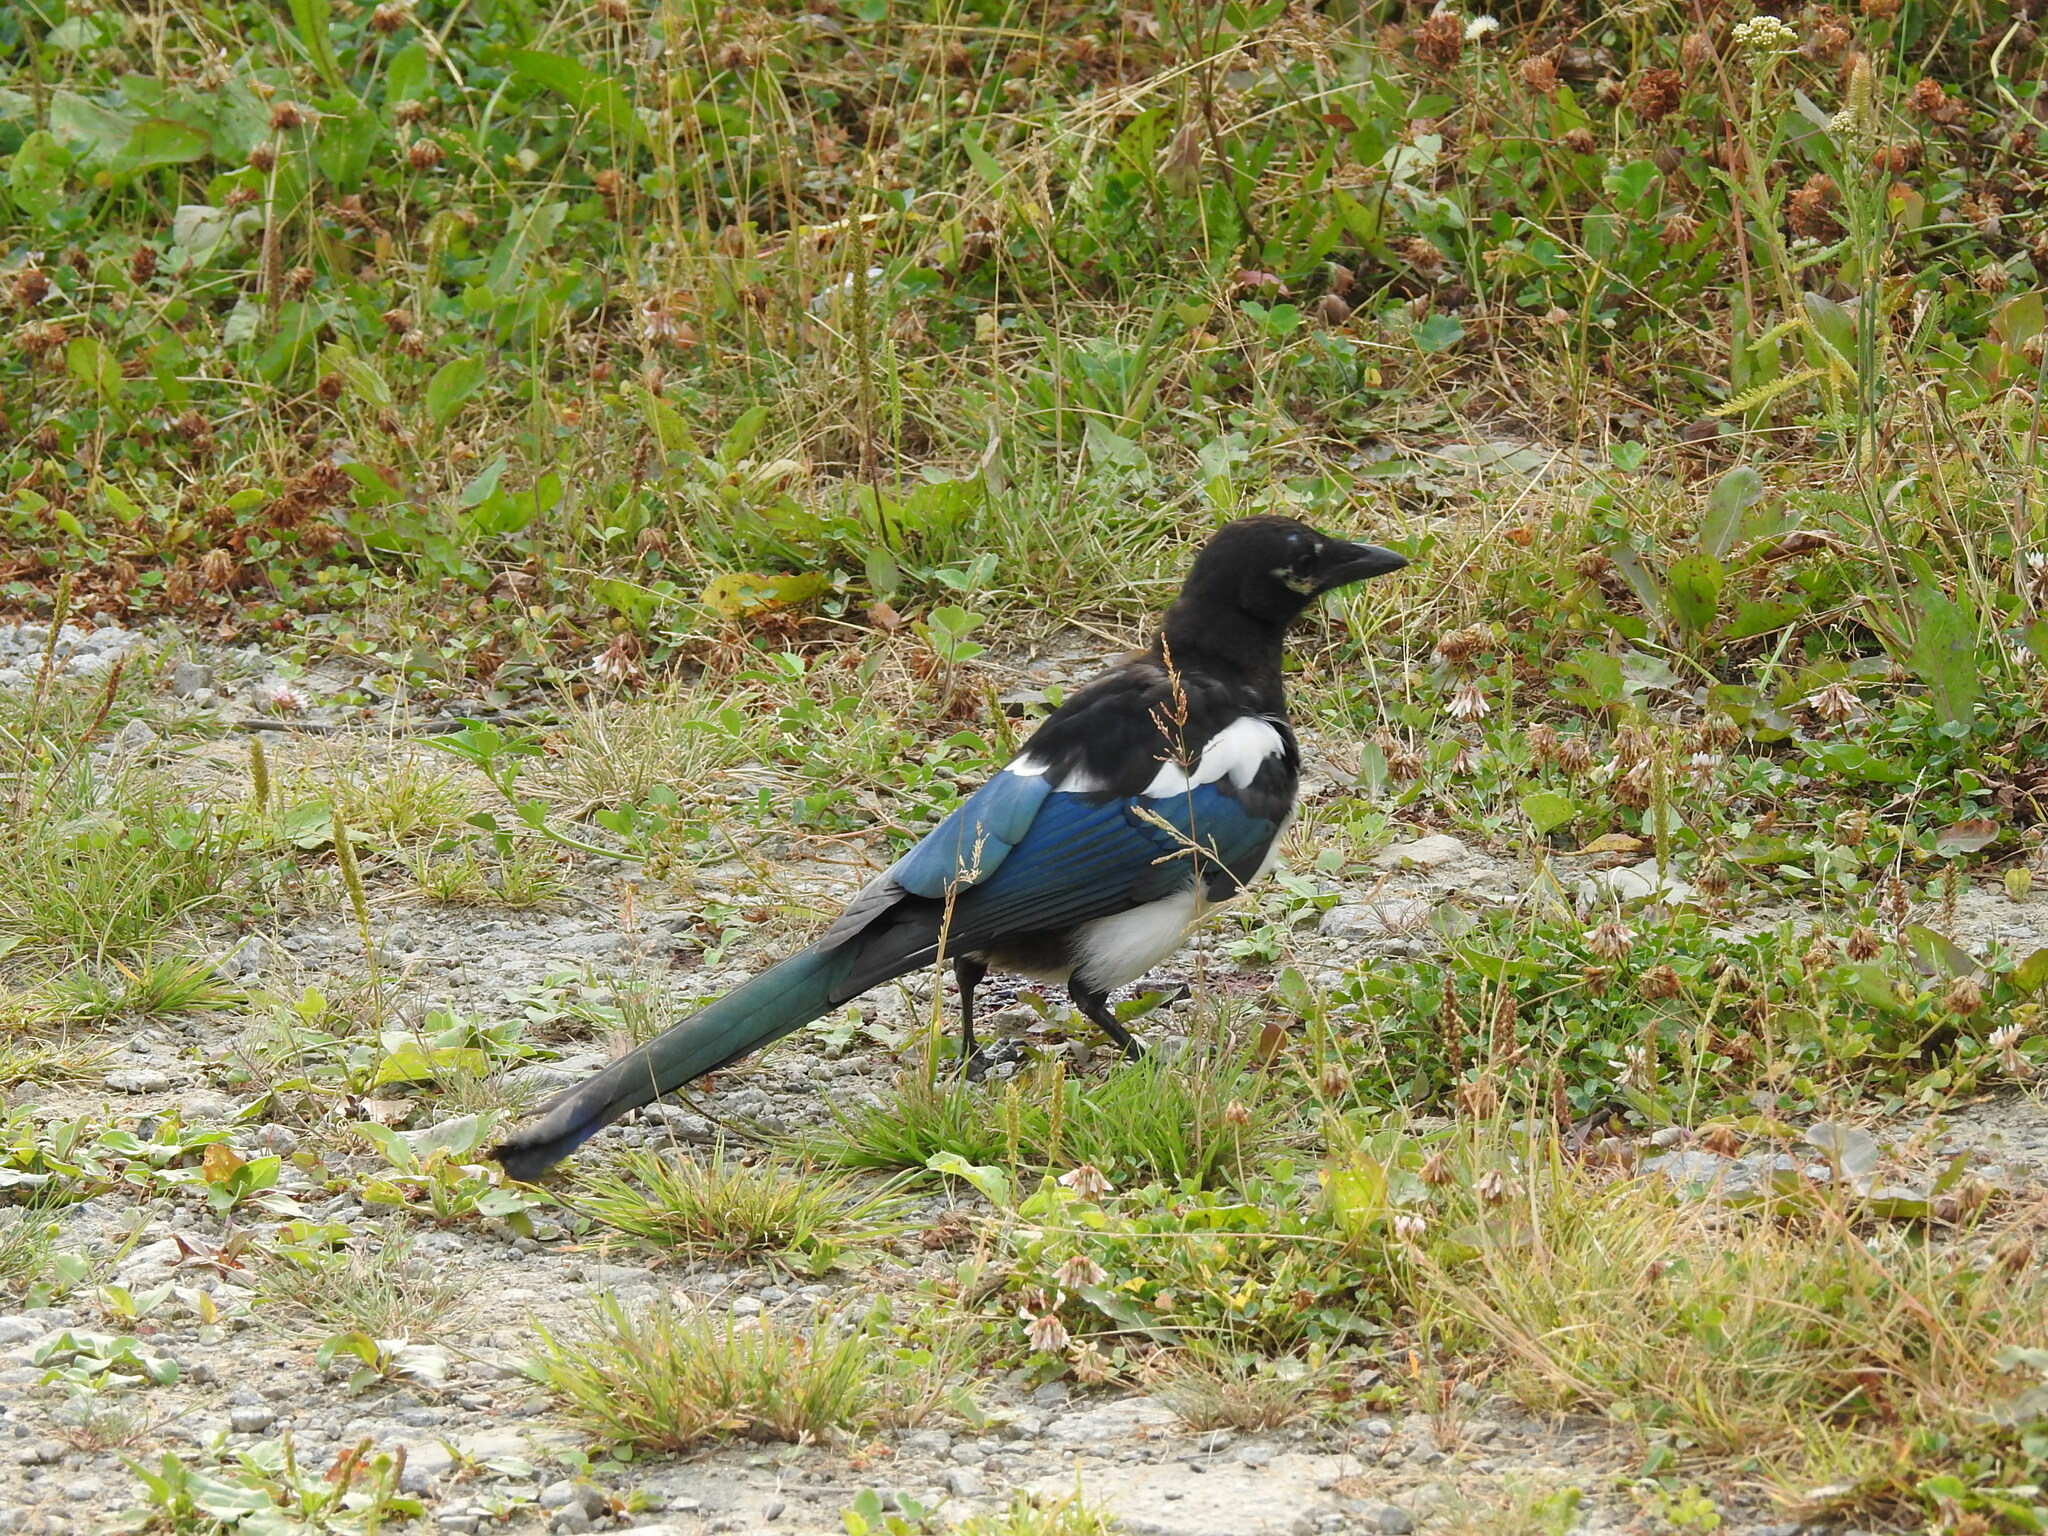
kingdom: Animalia
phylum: Chordata
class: Aves
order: Passeriformes
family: Corvidae
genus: Pica
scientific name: Pica pica
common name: Eurasian magpie
